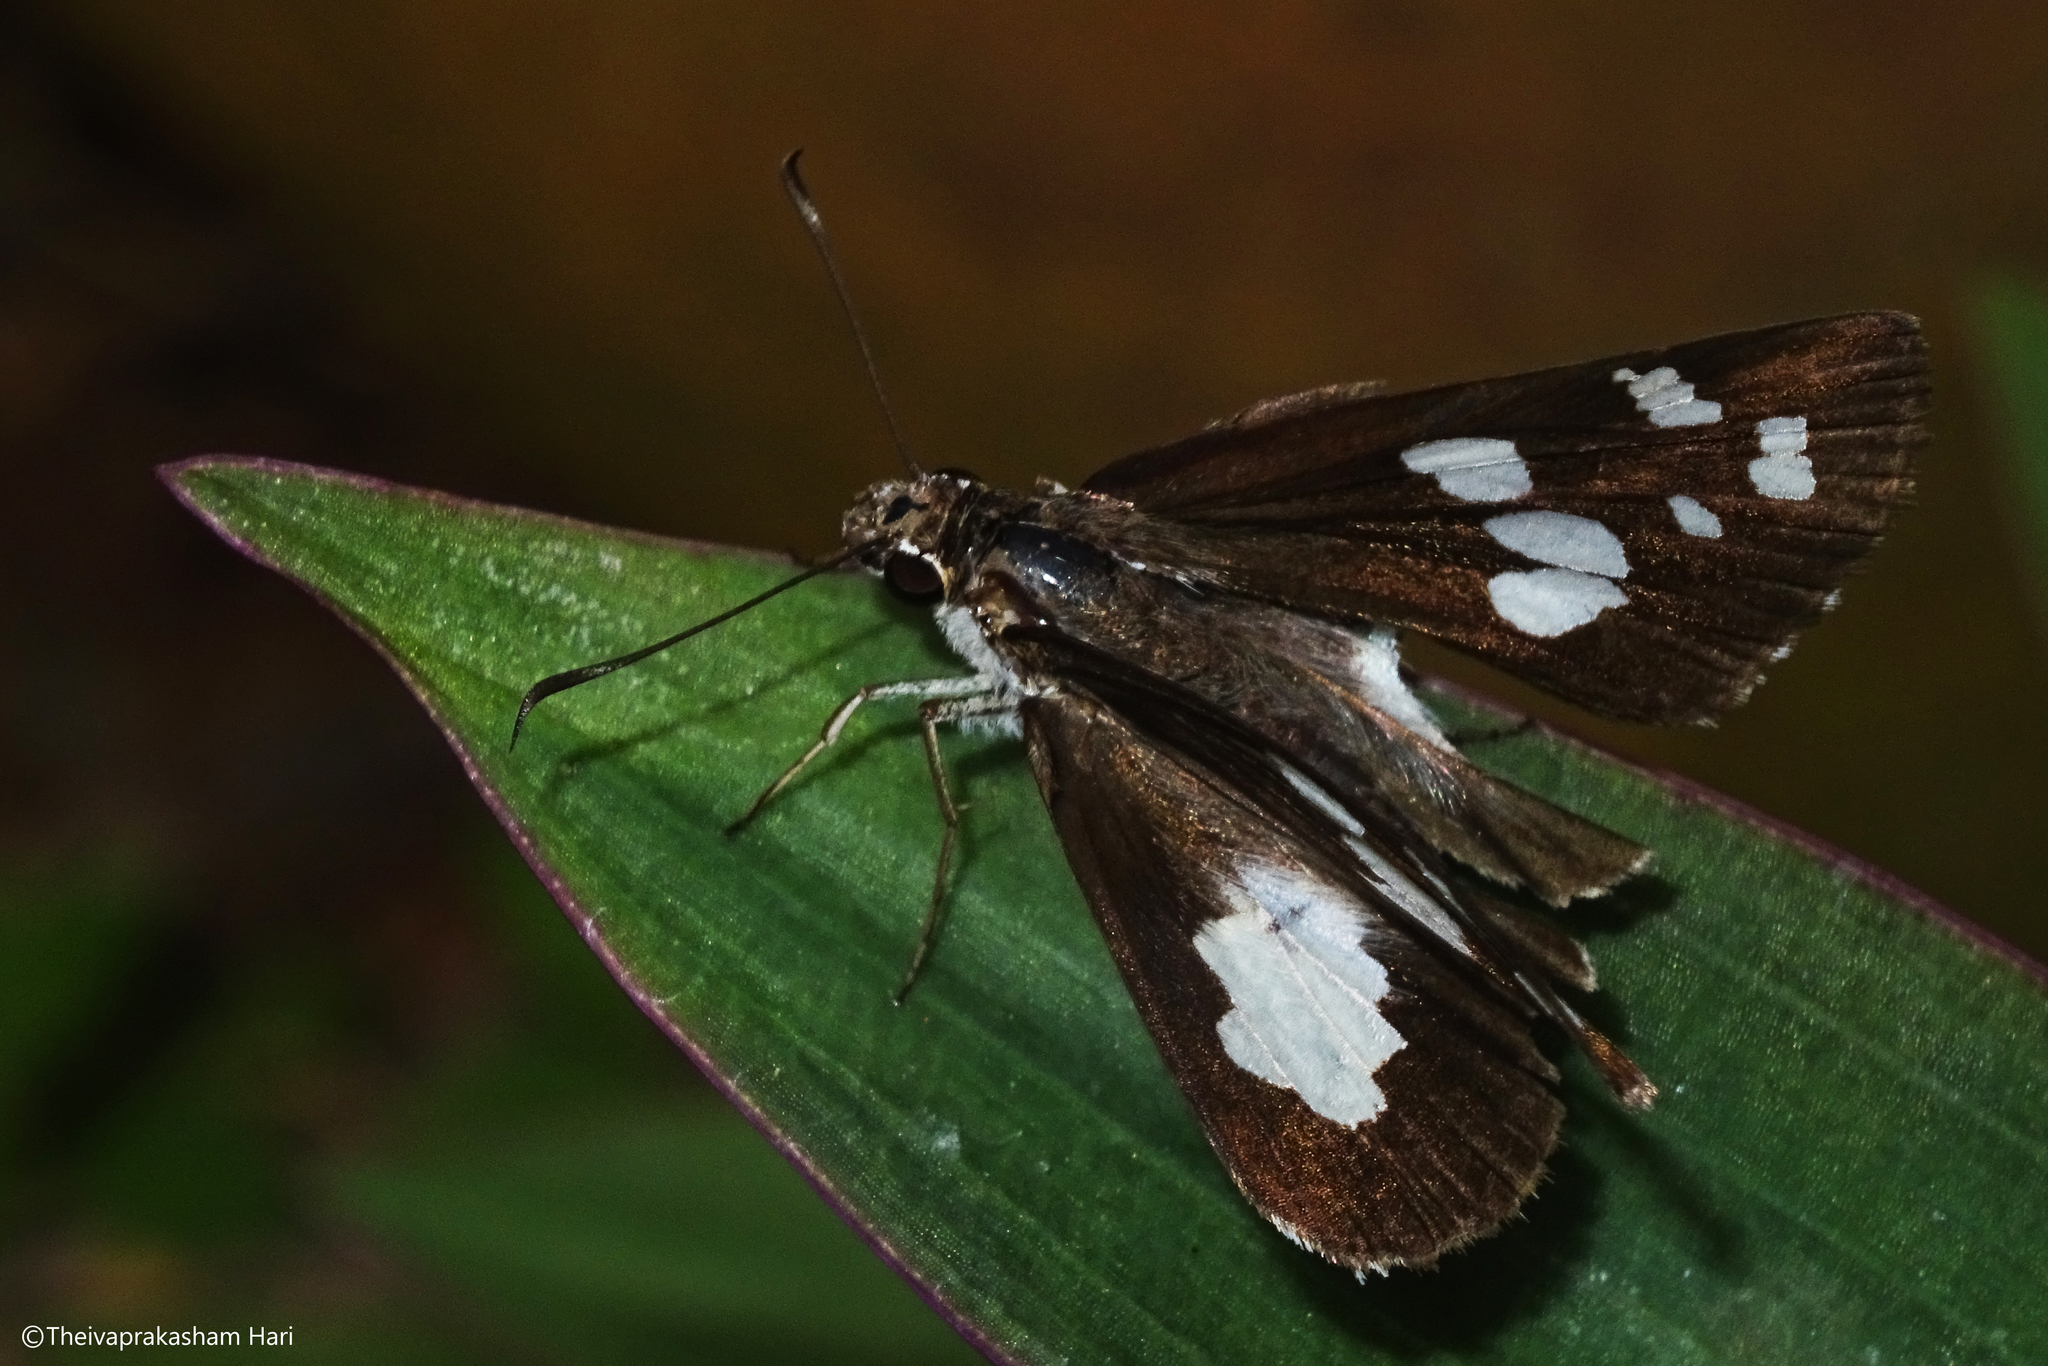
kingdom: Animalia
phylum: Arthropoda
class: Insecta
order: Lepidoptera
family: Hesperiidae
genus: Udaspes
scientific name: Udaspes folus
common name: Grass demon
